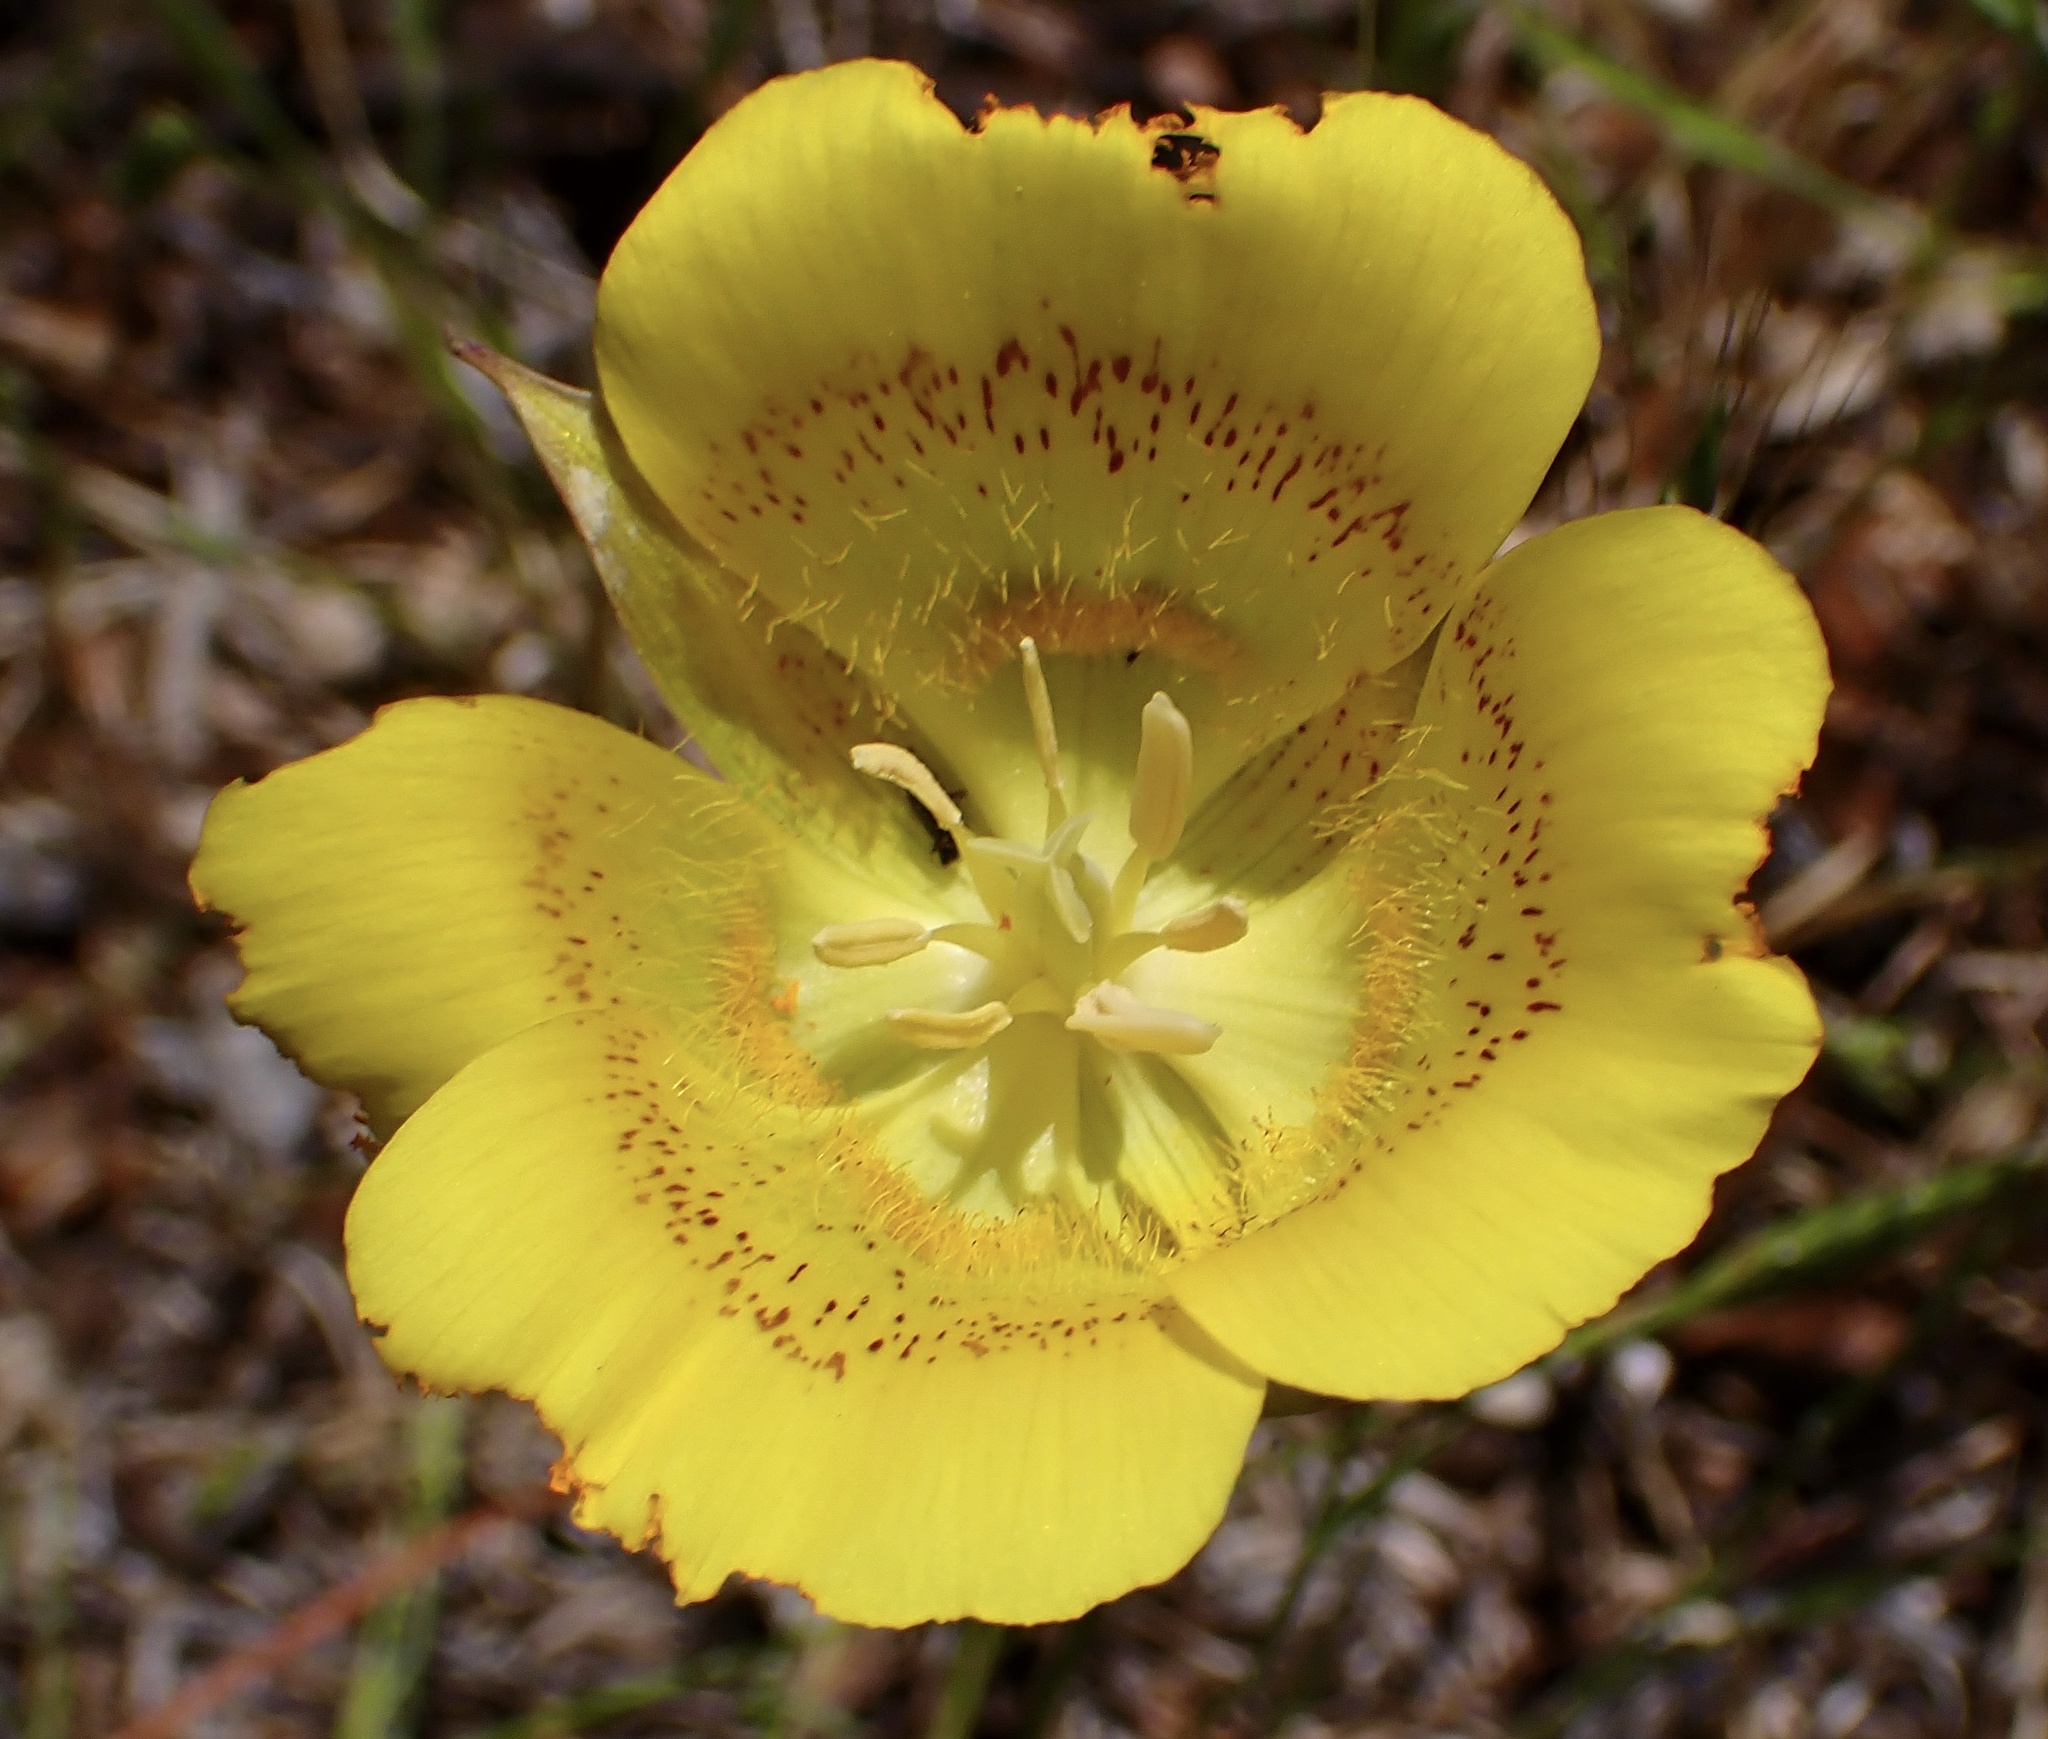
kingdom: Plantae
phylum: Tracheophyta
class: Liliopsida
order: Liliales
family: Liliaceae
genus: Calochortus
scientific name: Calochortus luteus
